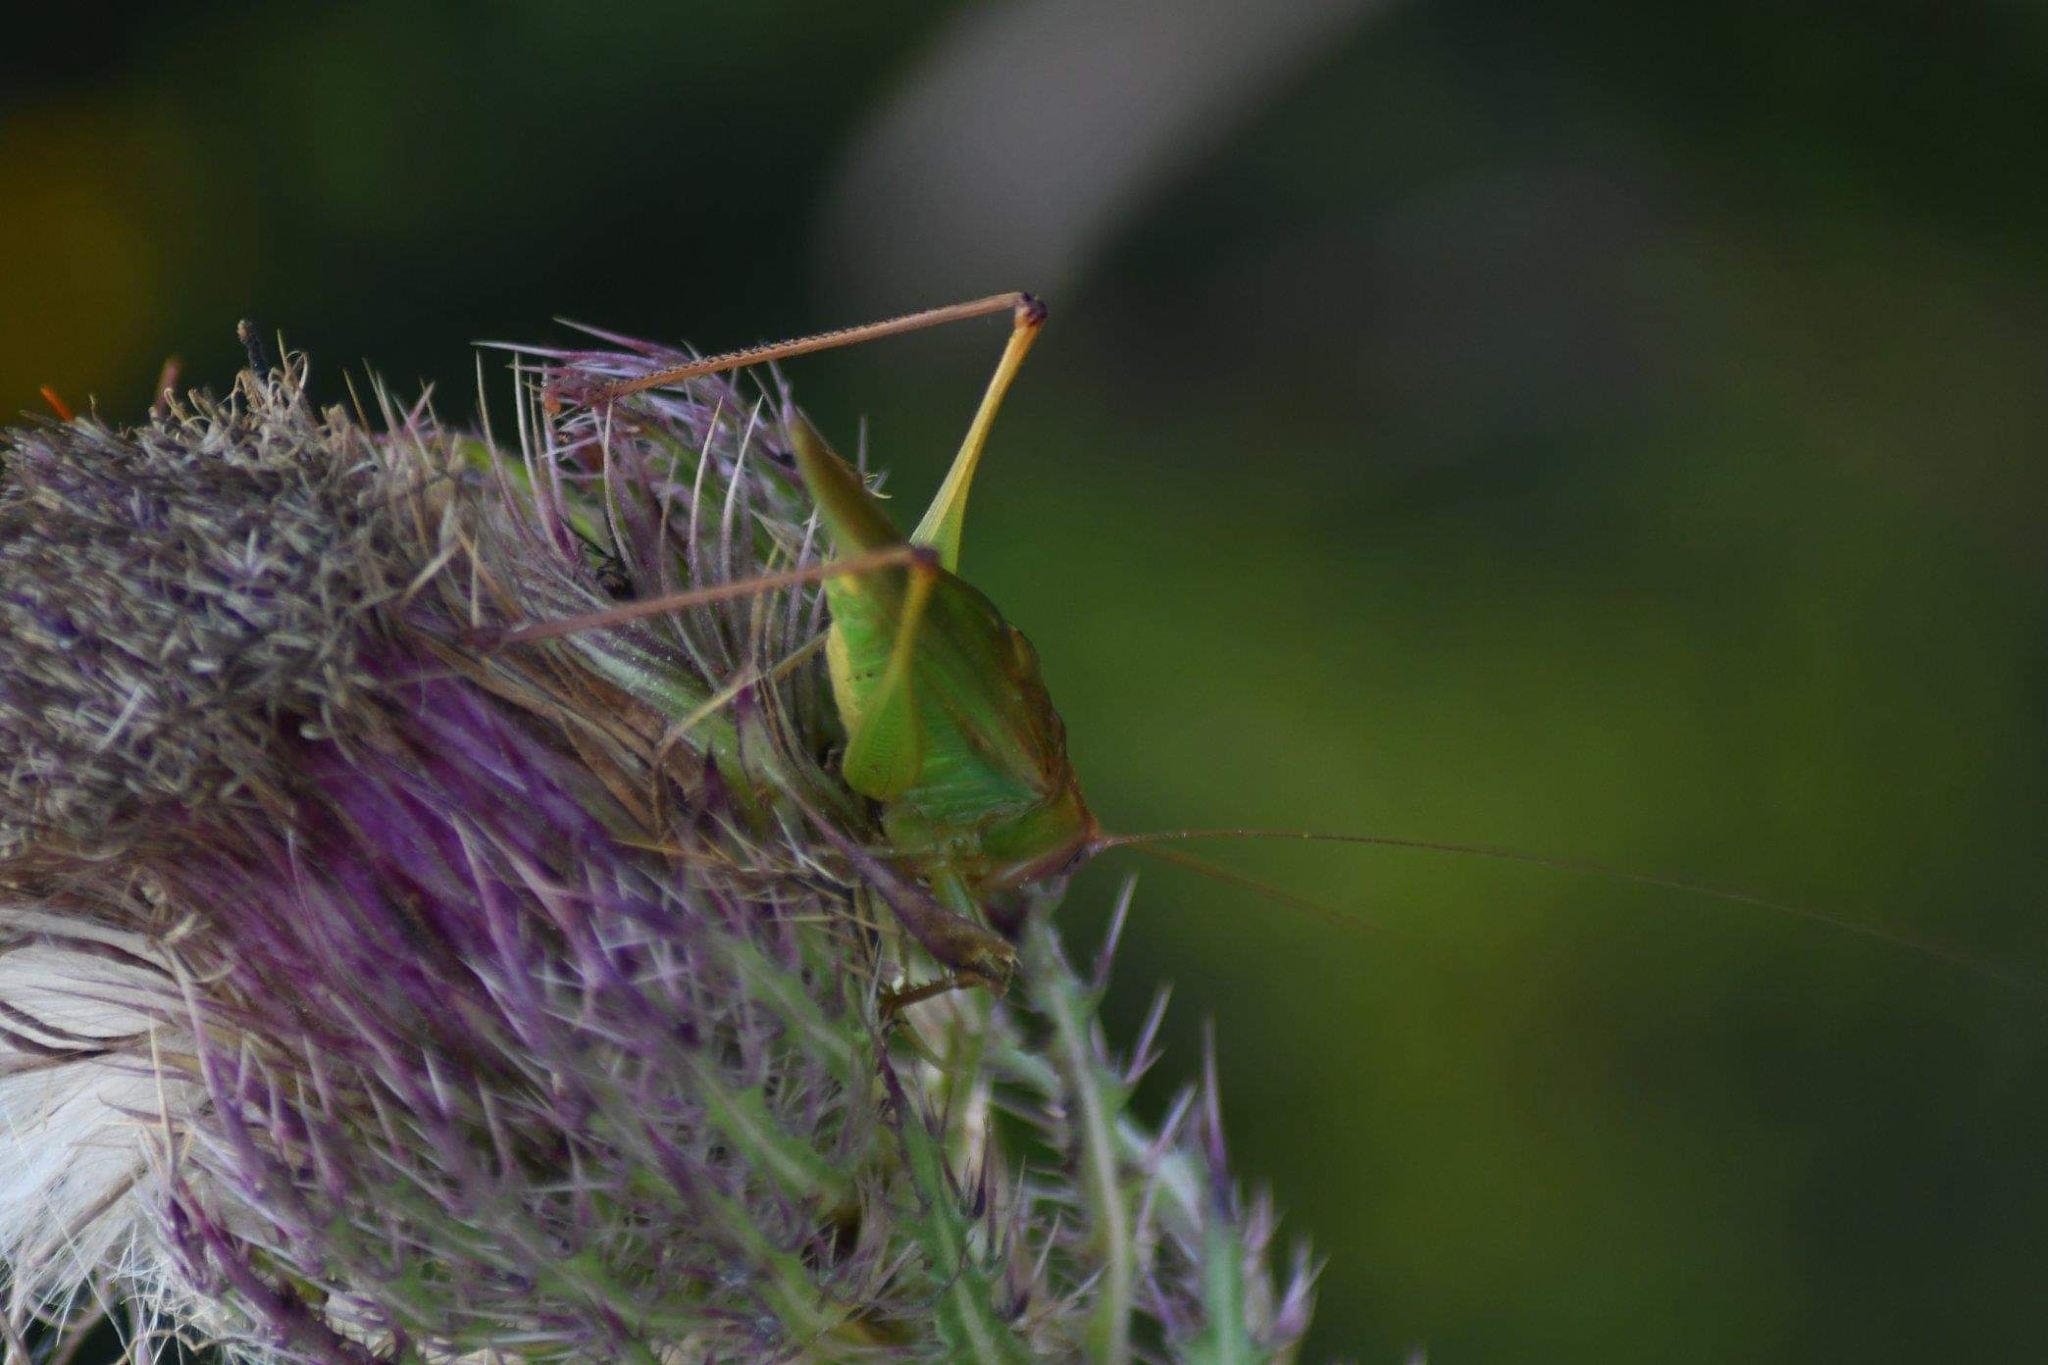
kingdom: Animalia
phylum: Arthropoda
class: Insecta
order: Orthoptera
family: Tettigoniidae
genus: Orchelimum
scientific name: Orchelimum erythrocephalum
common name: Red-headed meadow katydid
